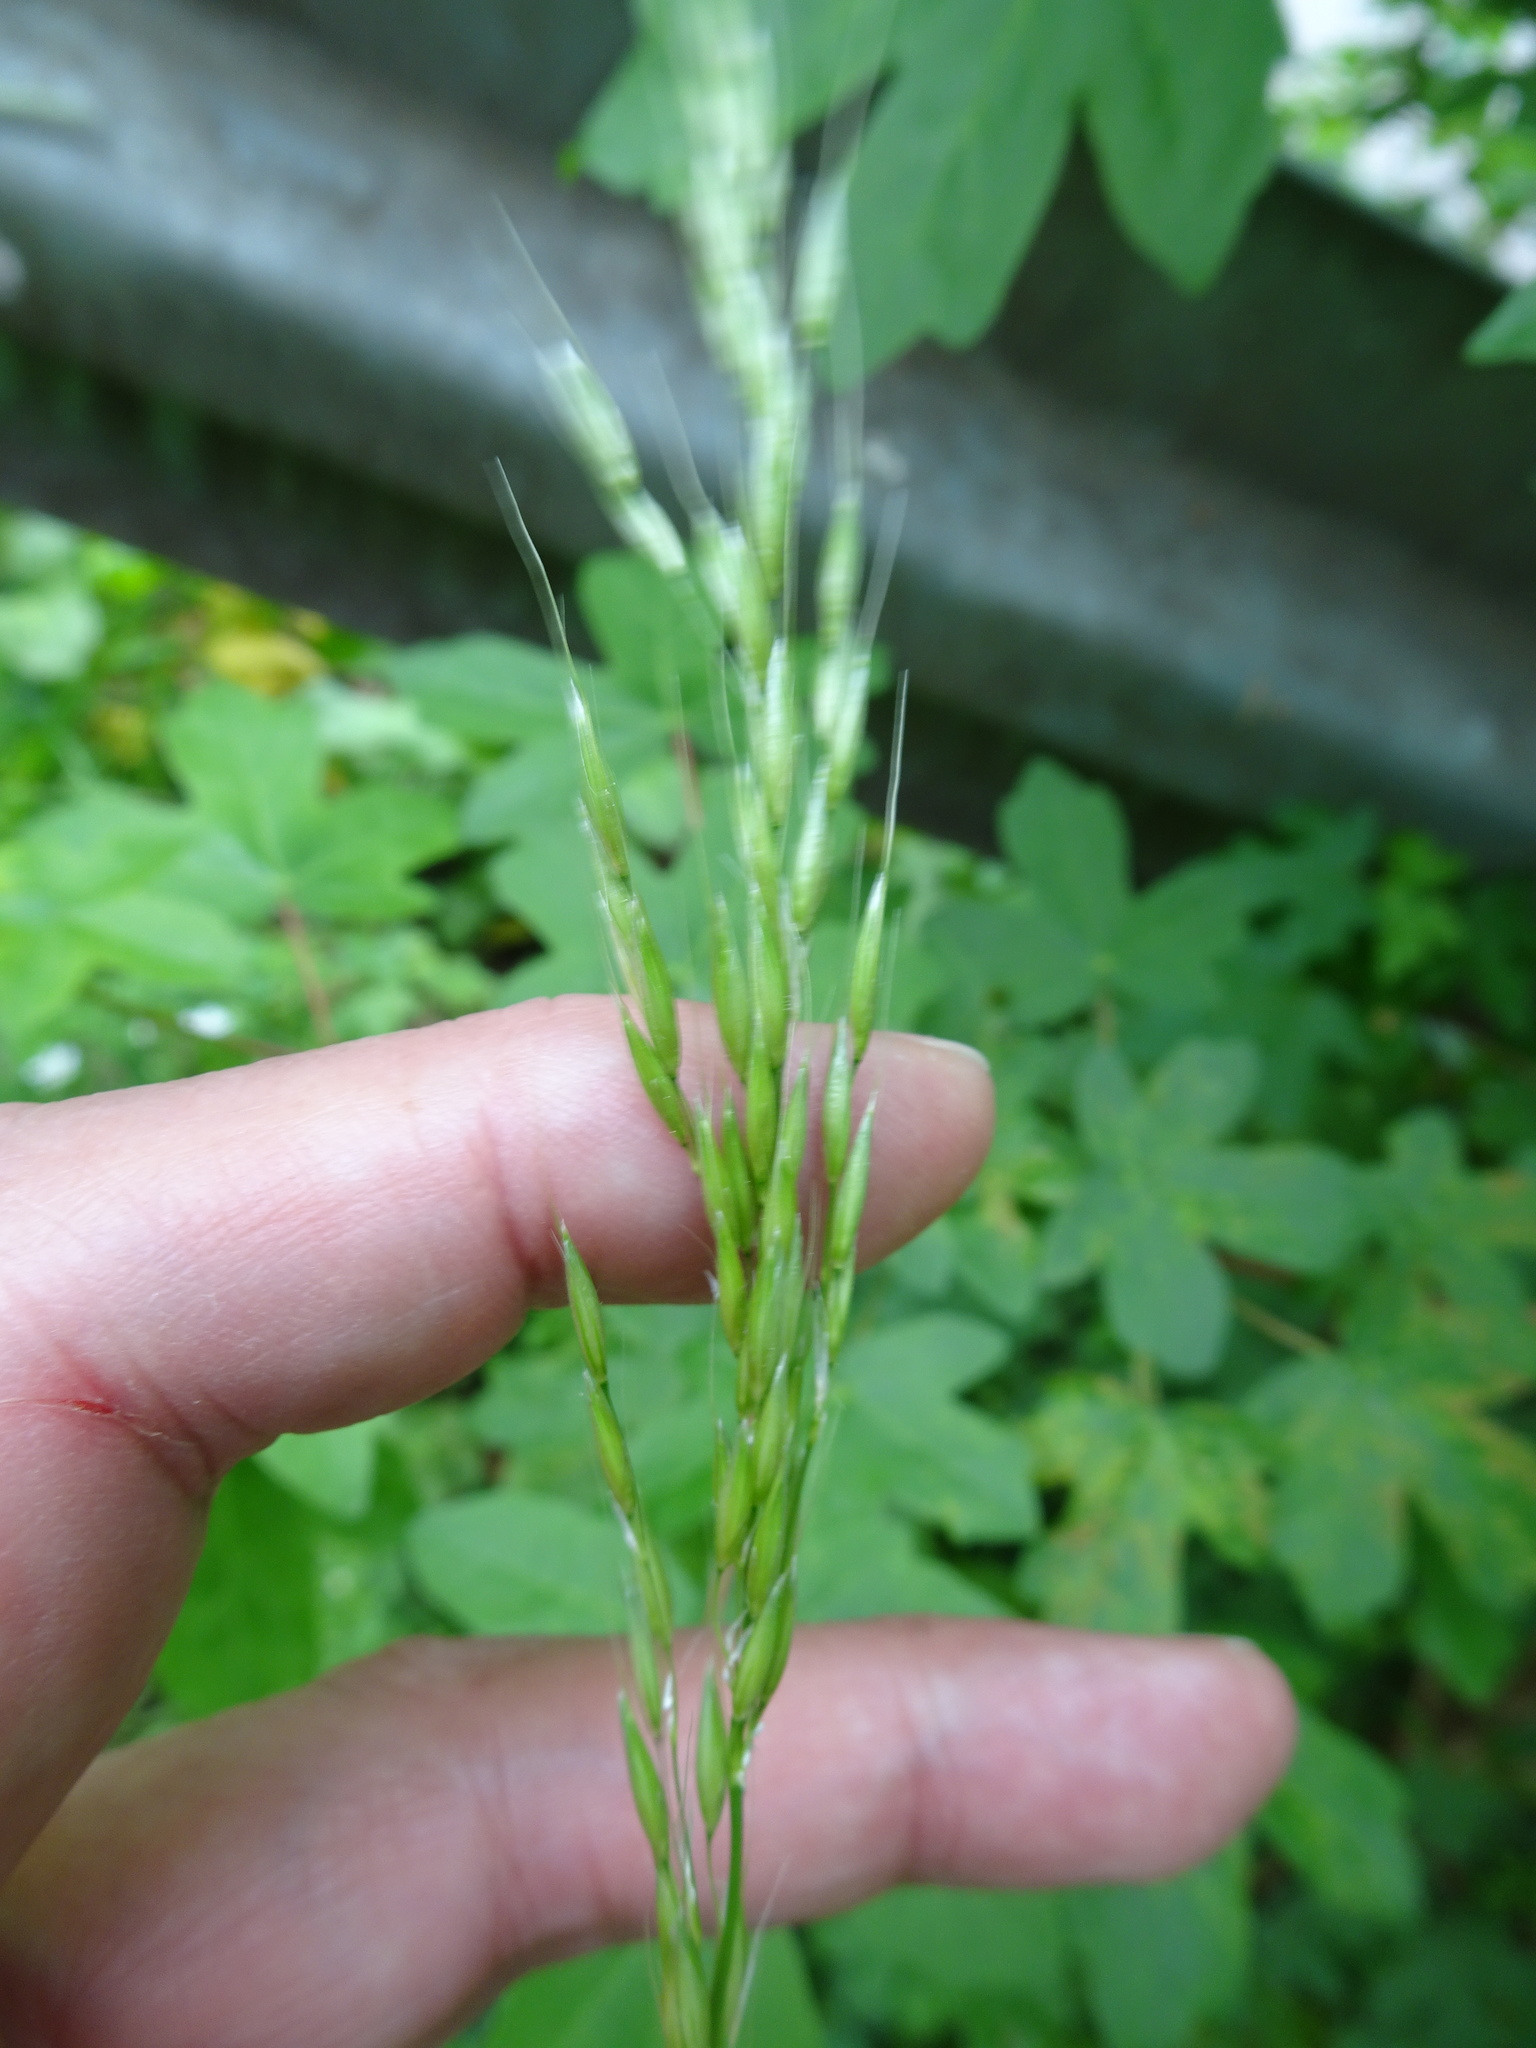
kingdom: Plantae
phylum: Tracheophyta
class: Liliopsida
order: Poales
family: Poaceae
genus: Arrhenatherum
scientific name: Arrhenatherum elatius
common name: Tall oatgrass
